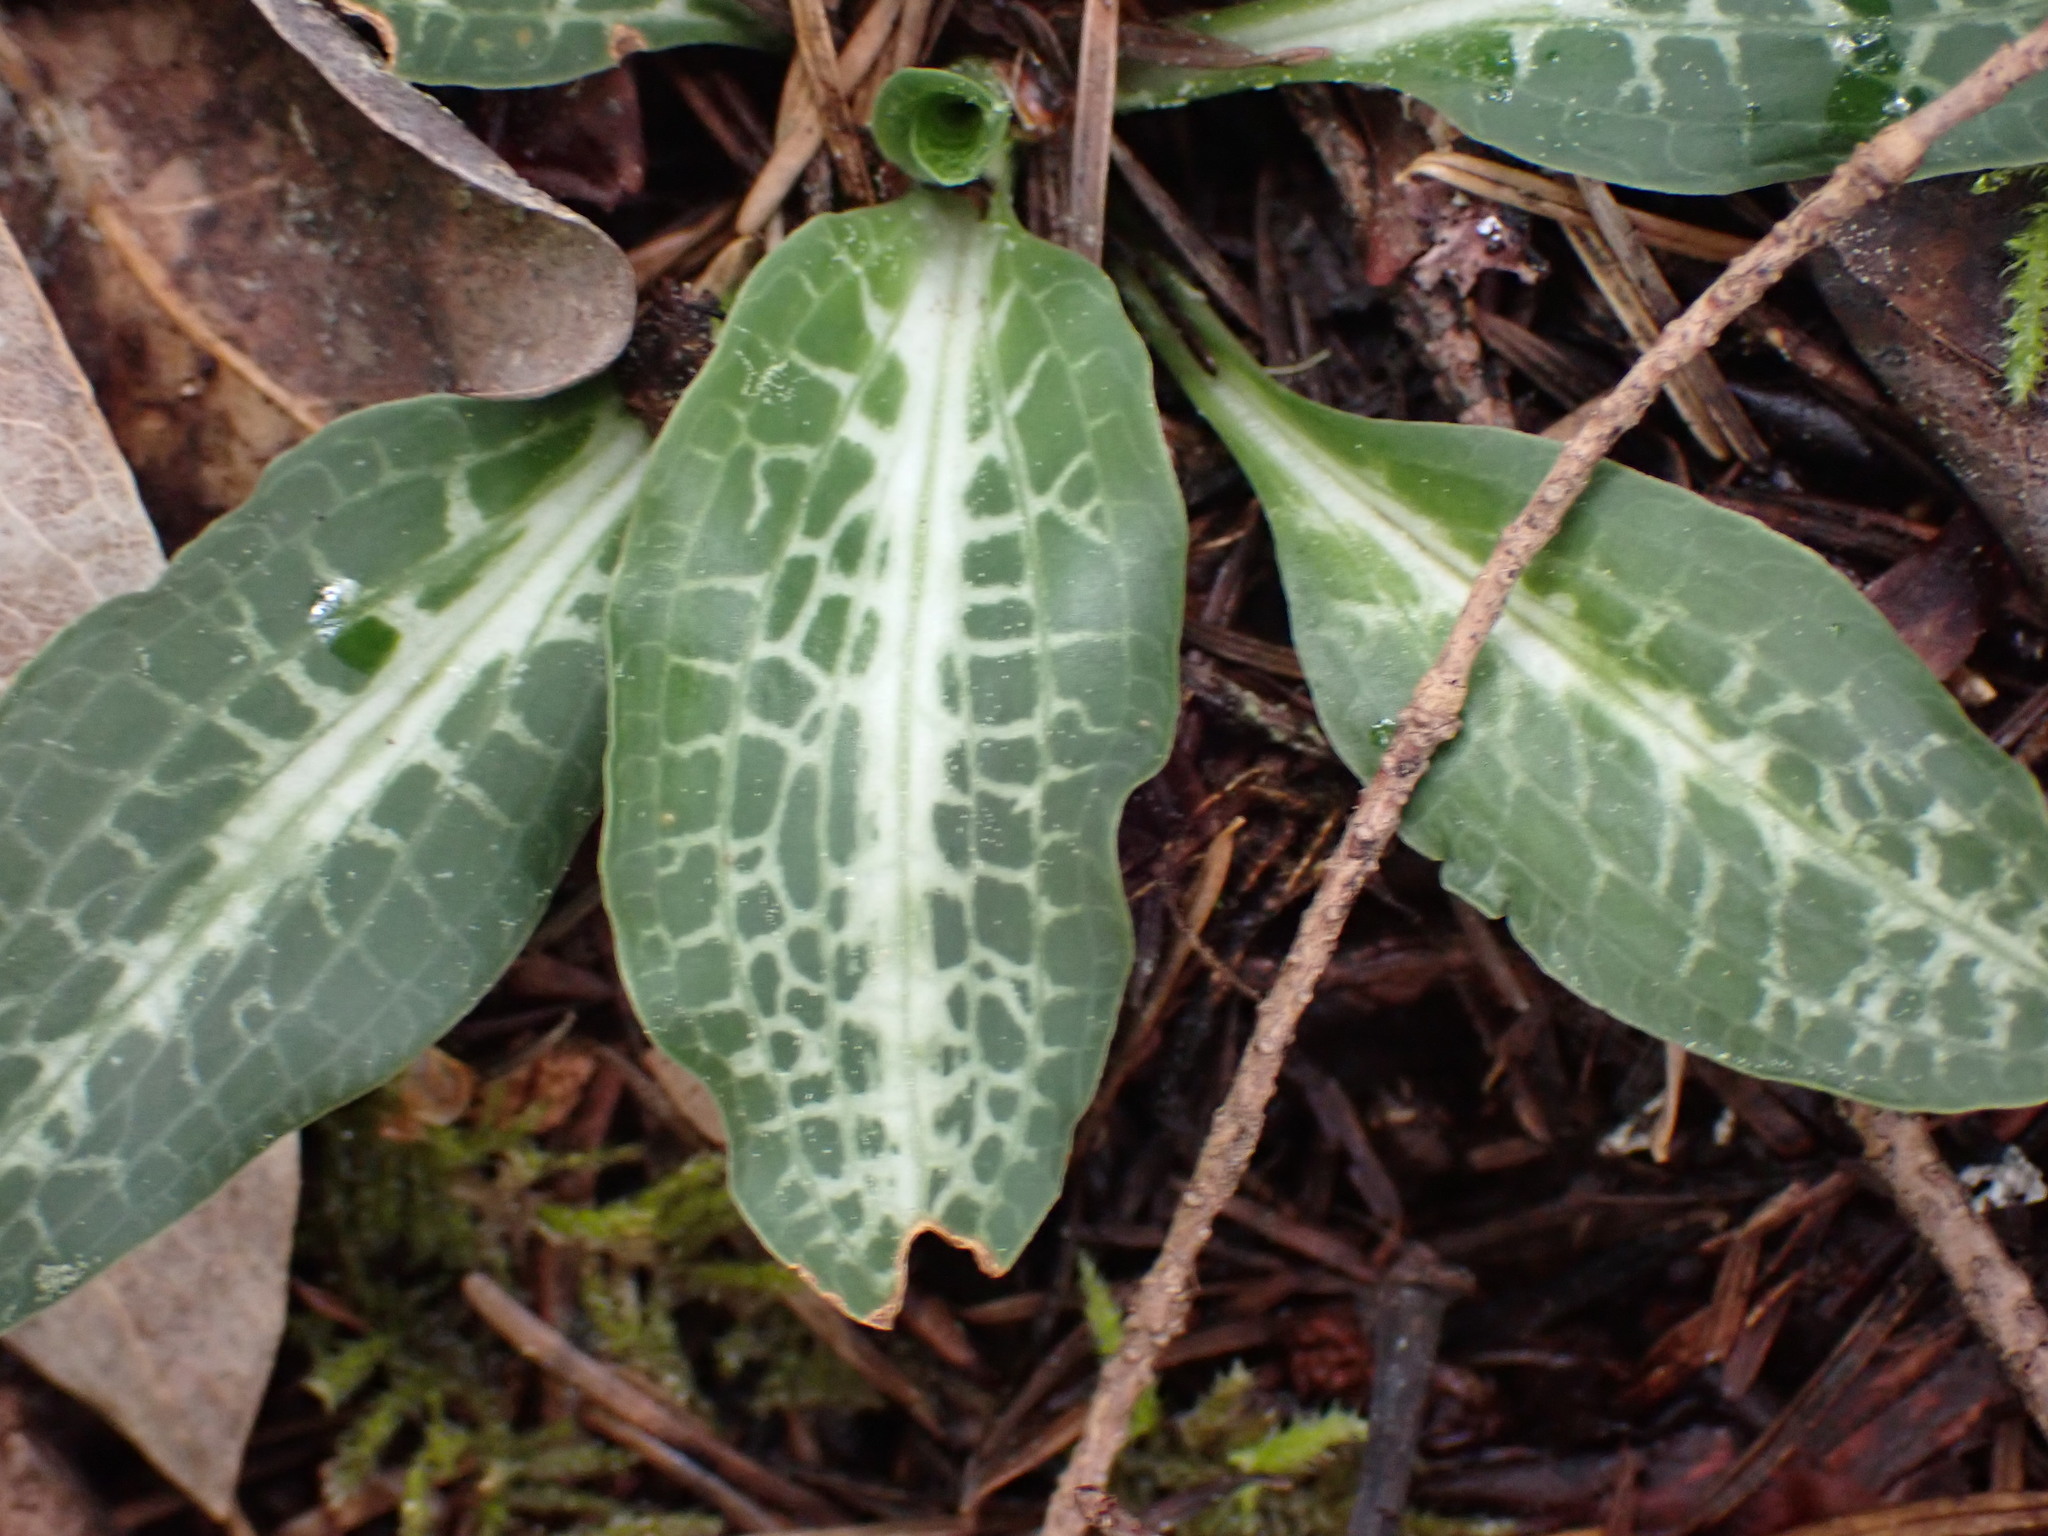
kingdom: Plantae
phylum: Tracheophyta
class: Liliopsida
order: Asparagales
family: Orchidaceae
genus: Goodyera
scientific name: Goodyera oblongifolia
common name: Giant rattlesnake-plantain
